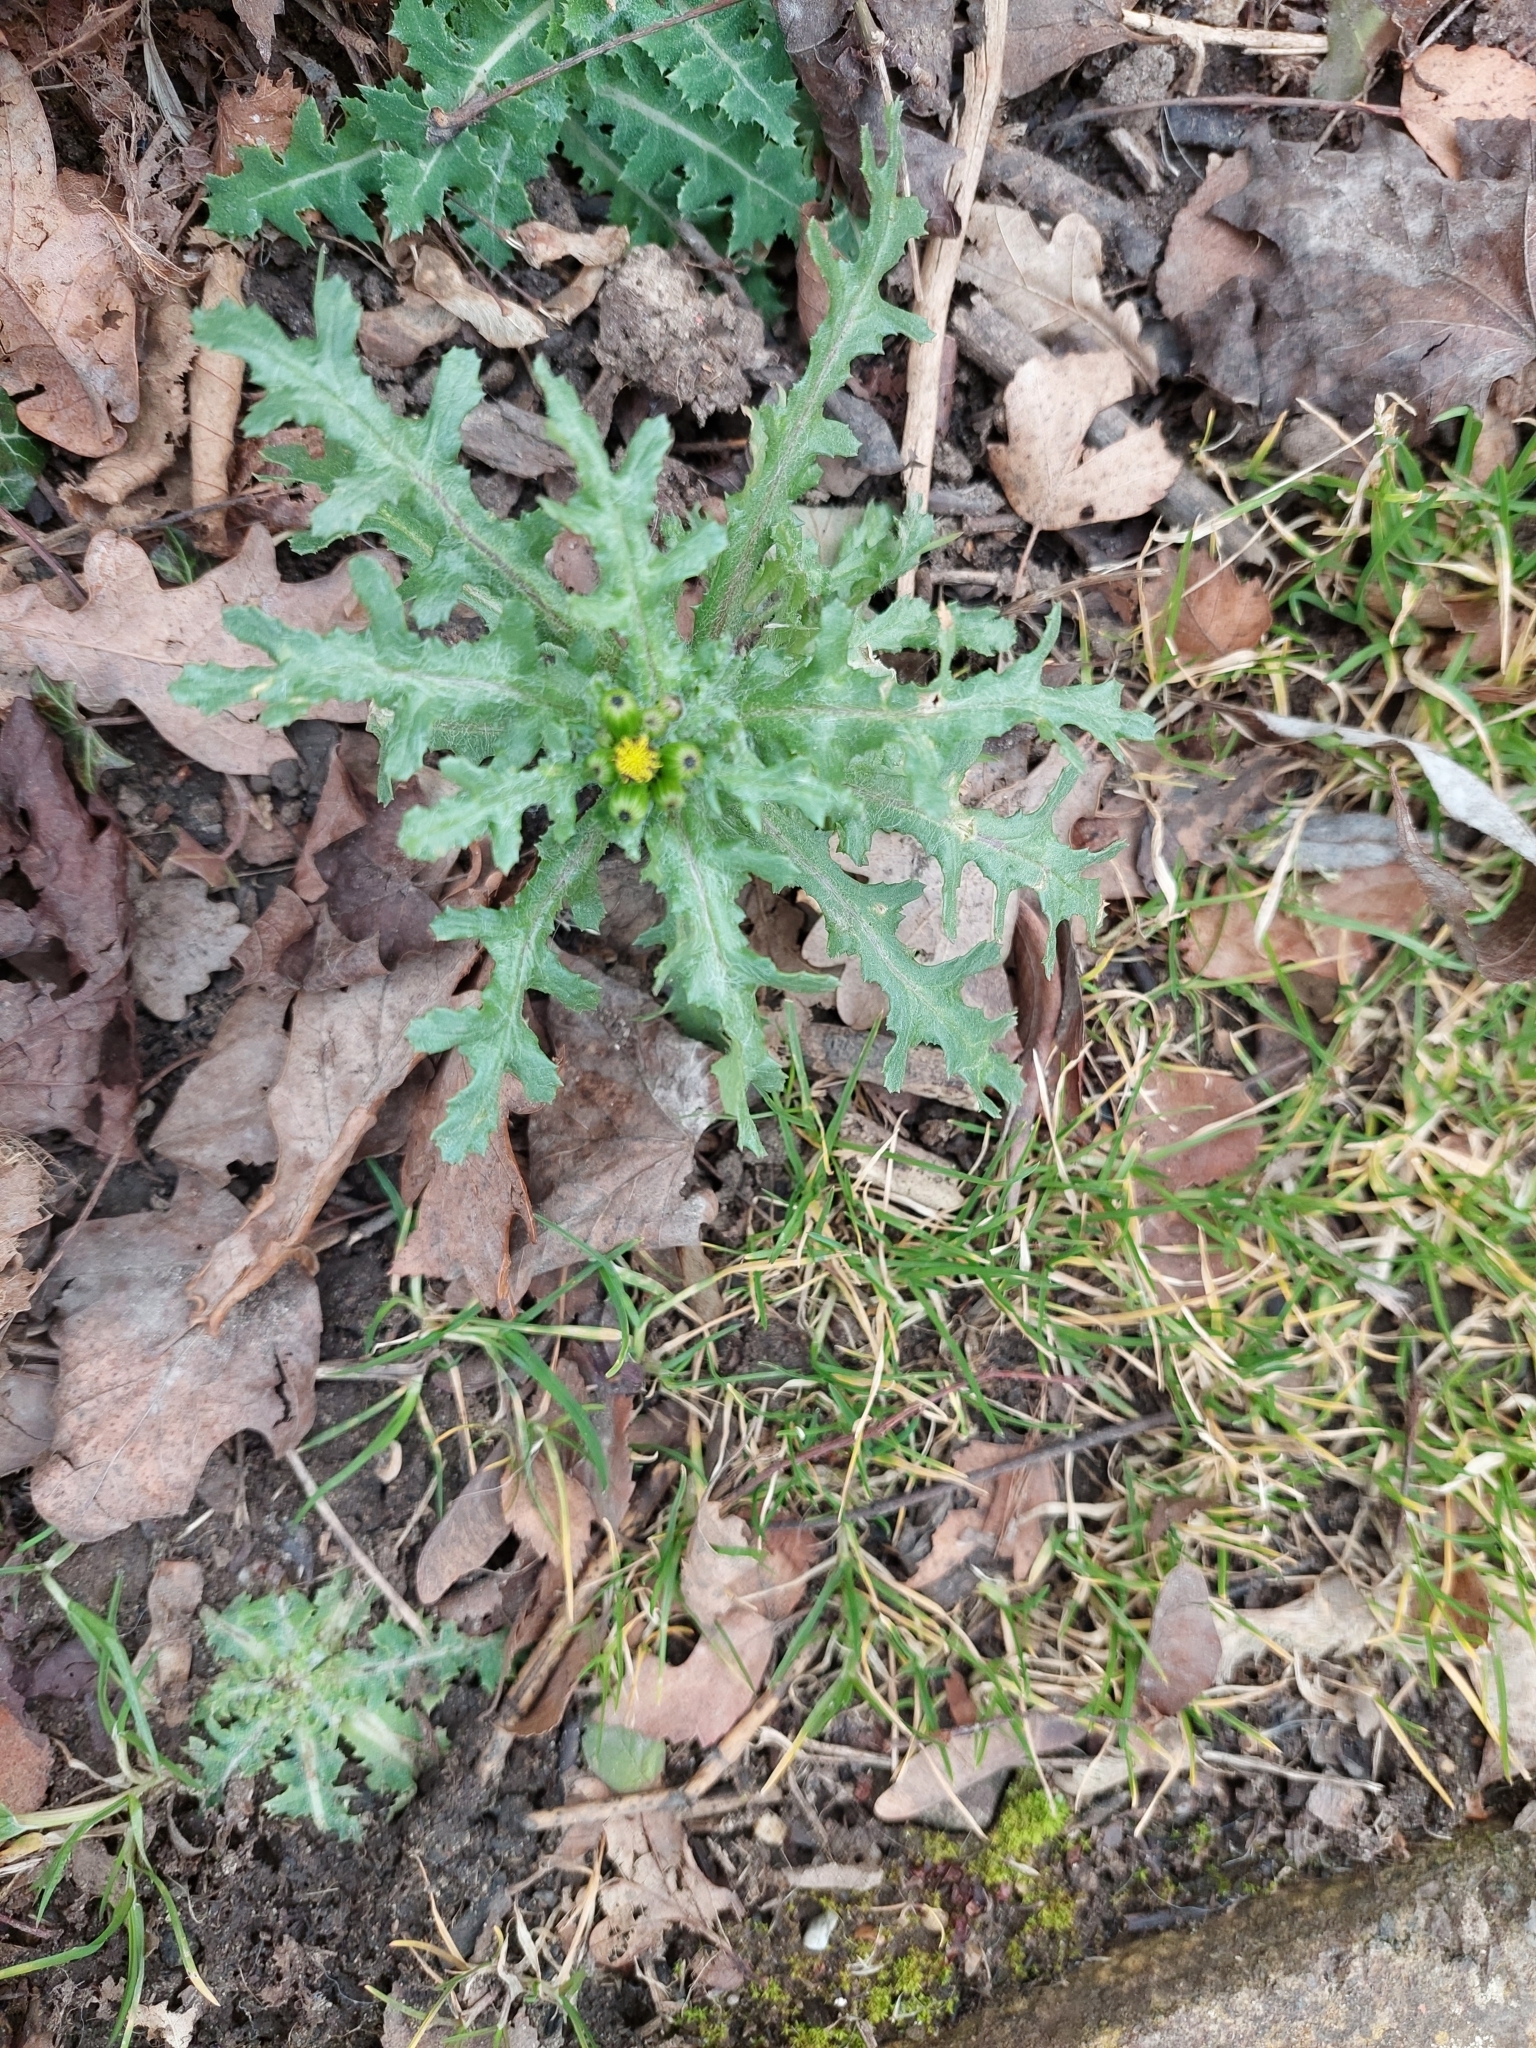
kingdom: Plantae
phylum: Tracheophyta
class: Magnoliopsida
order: Asterales
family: Asteraceae
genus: Senecio
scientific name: Senecio vulgaris
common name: Old-man-in-the-spring
